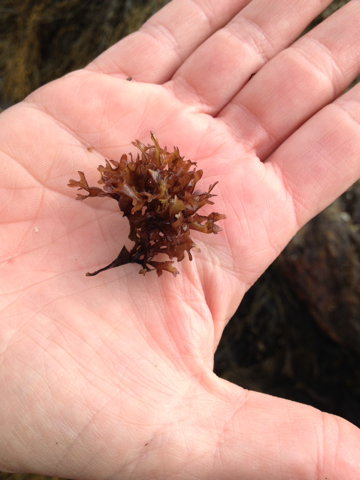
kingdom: Plantae
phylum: Rhodophyta
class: Florideophyceae
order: Gigartinales
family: Gigartinaceae
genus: Chondrus
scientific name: Chondrus crispus
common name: Carrageen
